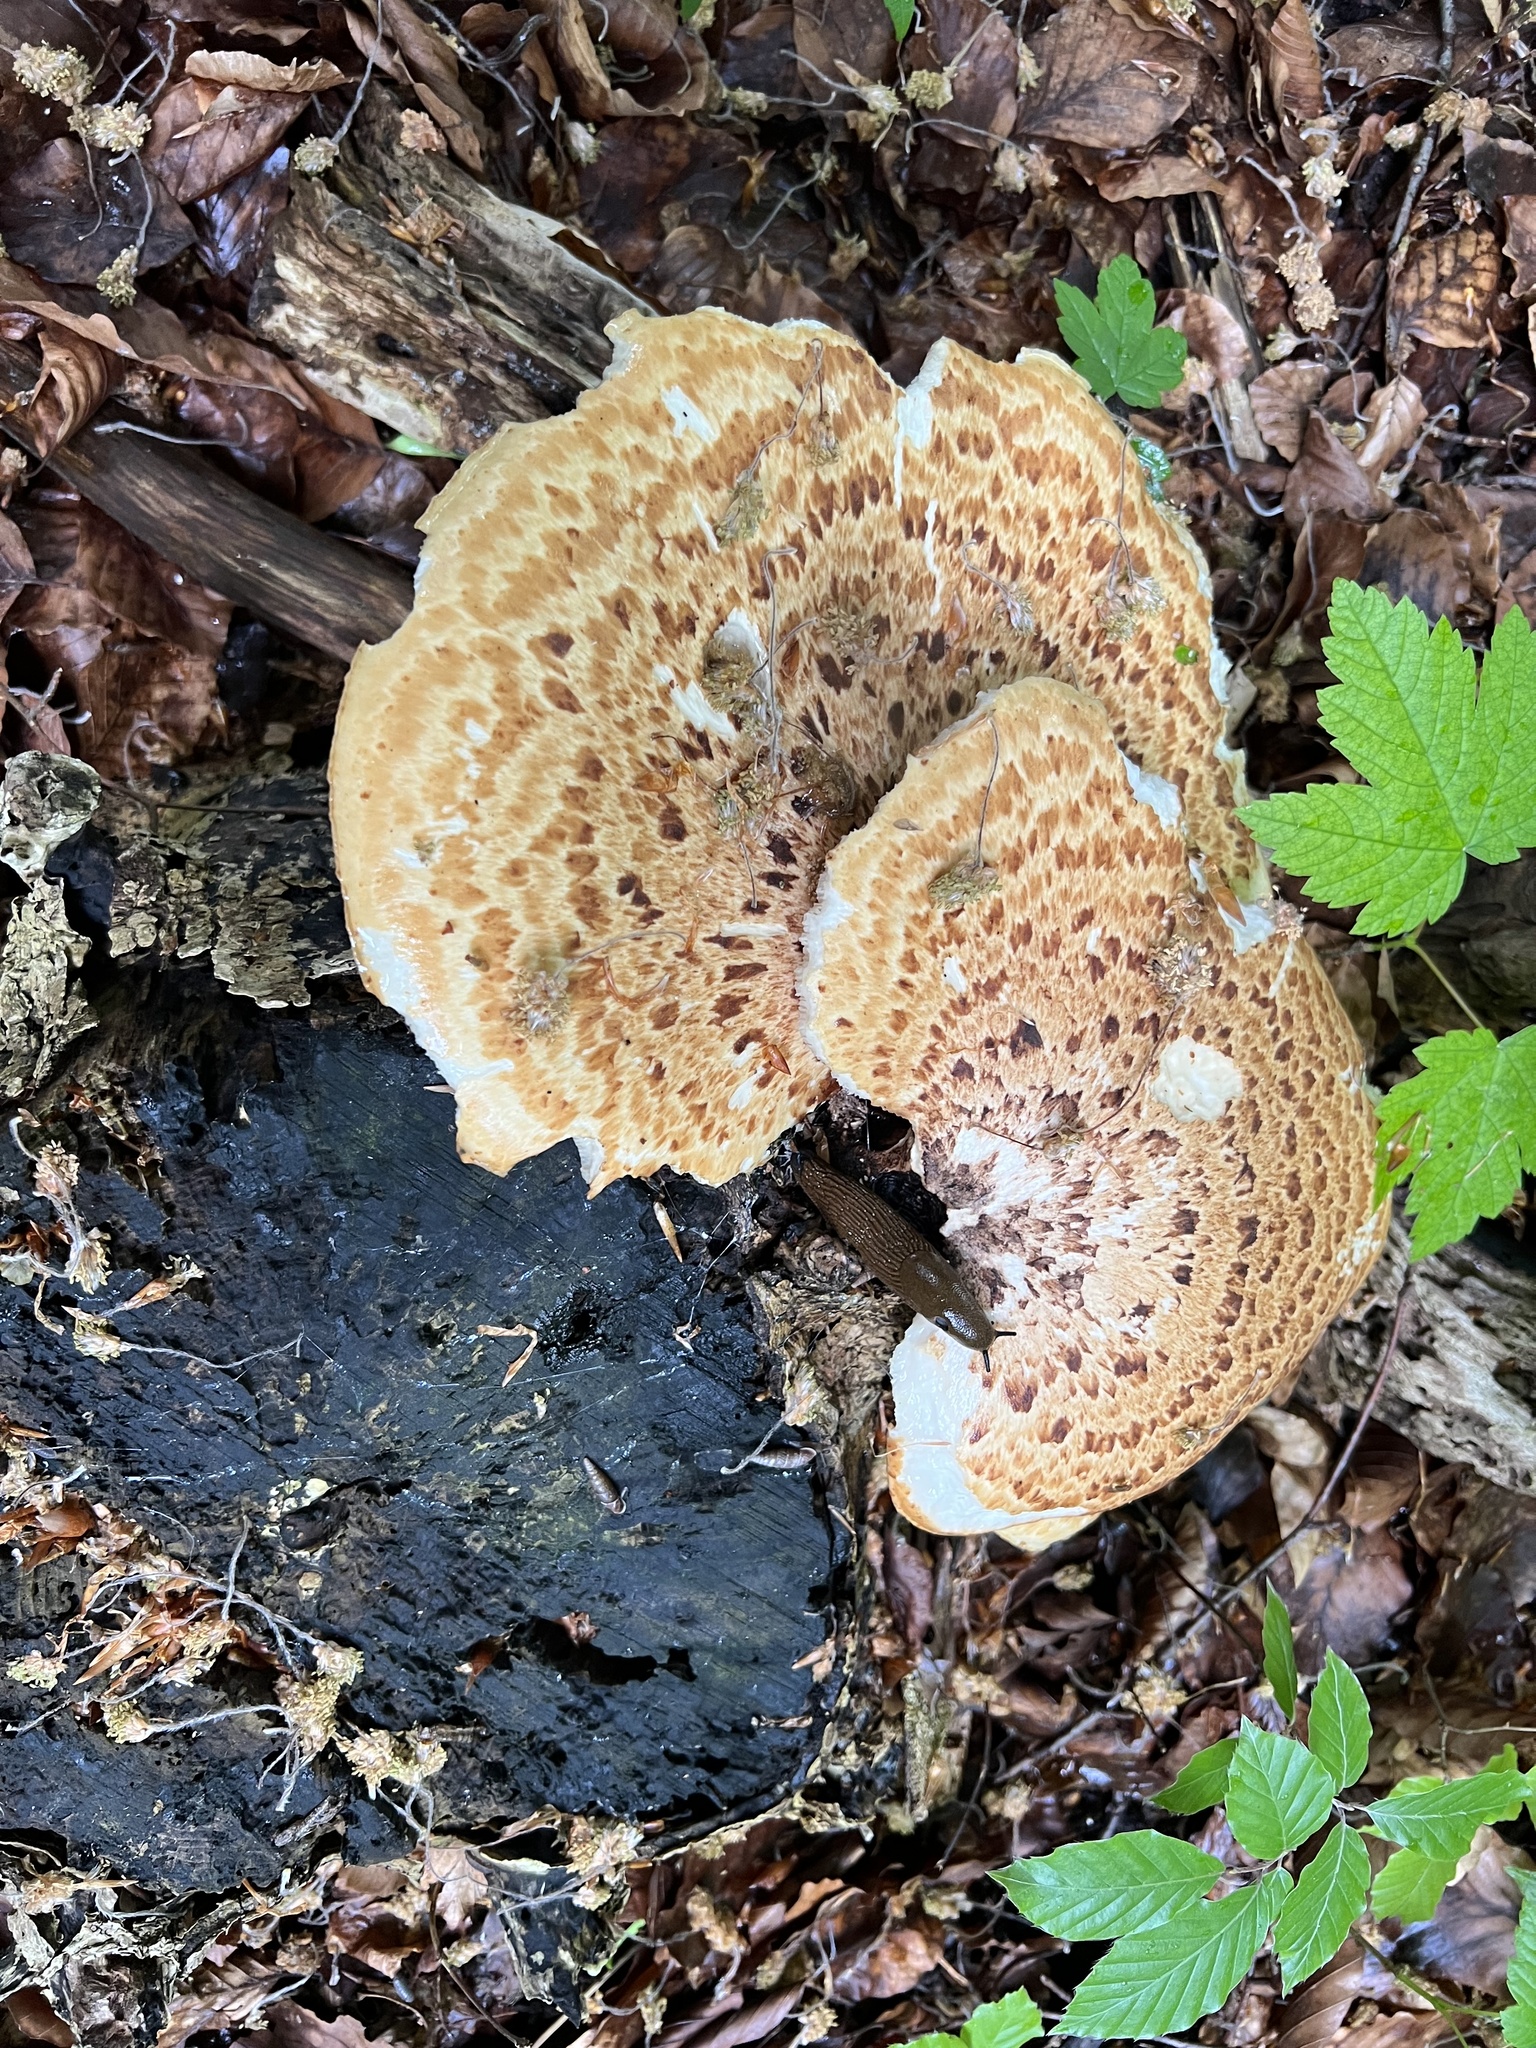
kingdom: Fungi
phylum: Basidiomycota
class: Agaricomycetes
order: Polyporales
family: Polyporaceae
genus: Cerioporus
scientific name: Cerioporus squamosus
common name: Dryad's saddle
